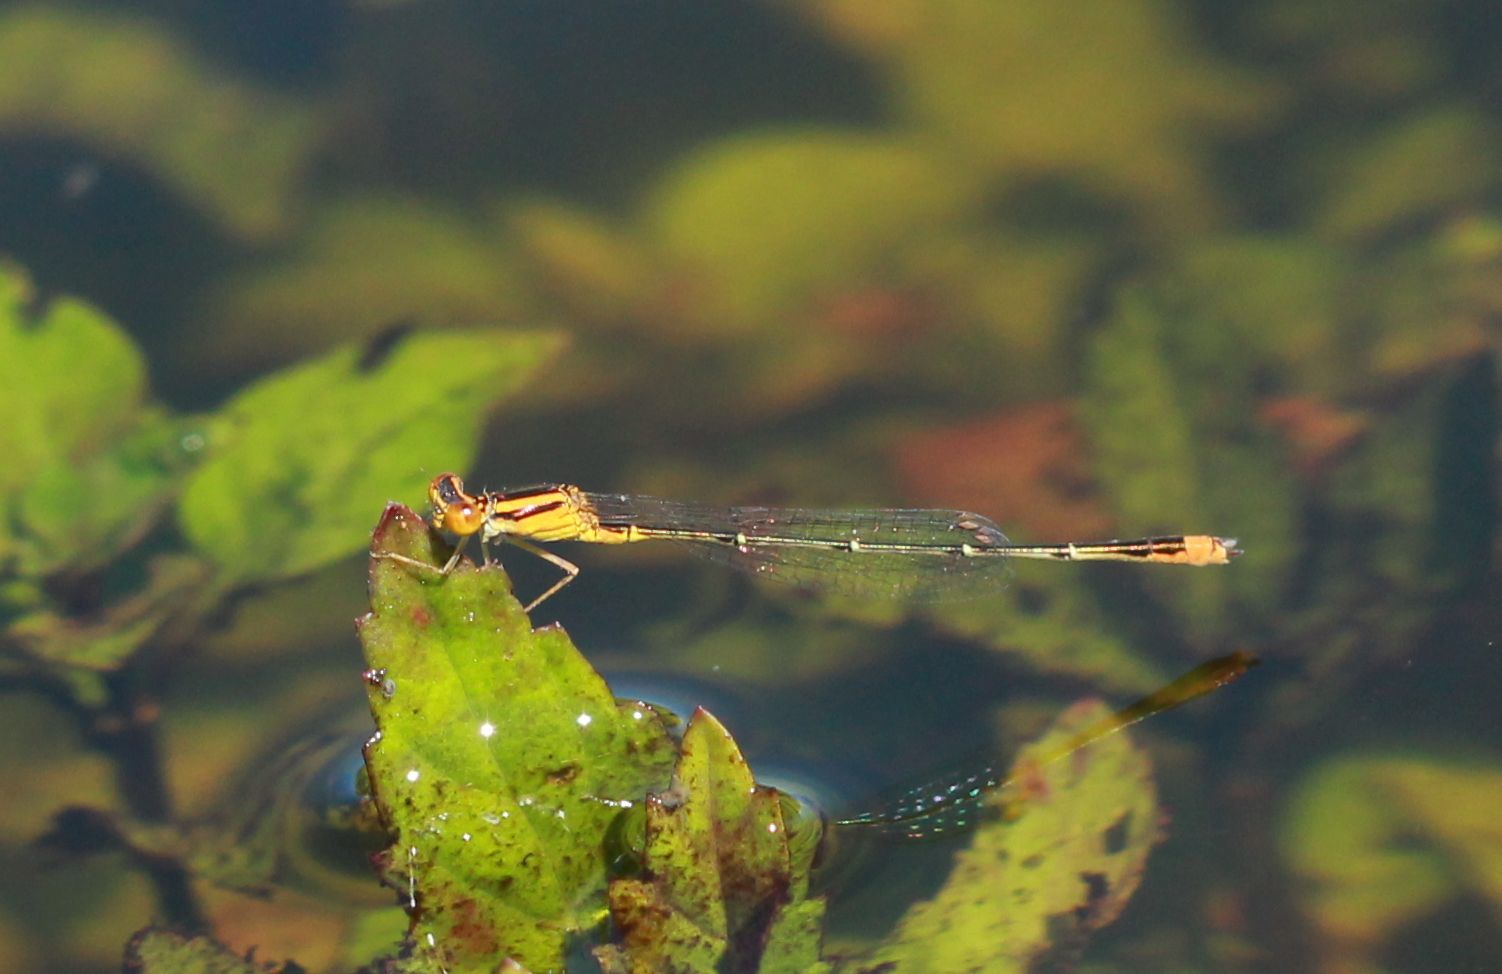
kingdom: Animalia
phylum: Arthropoda
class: Insecta
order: Odonata
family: Coenagrionidae
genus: Enallagma
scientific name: Enallagma signatum
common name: Orange bluet
